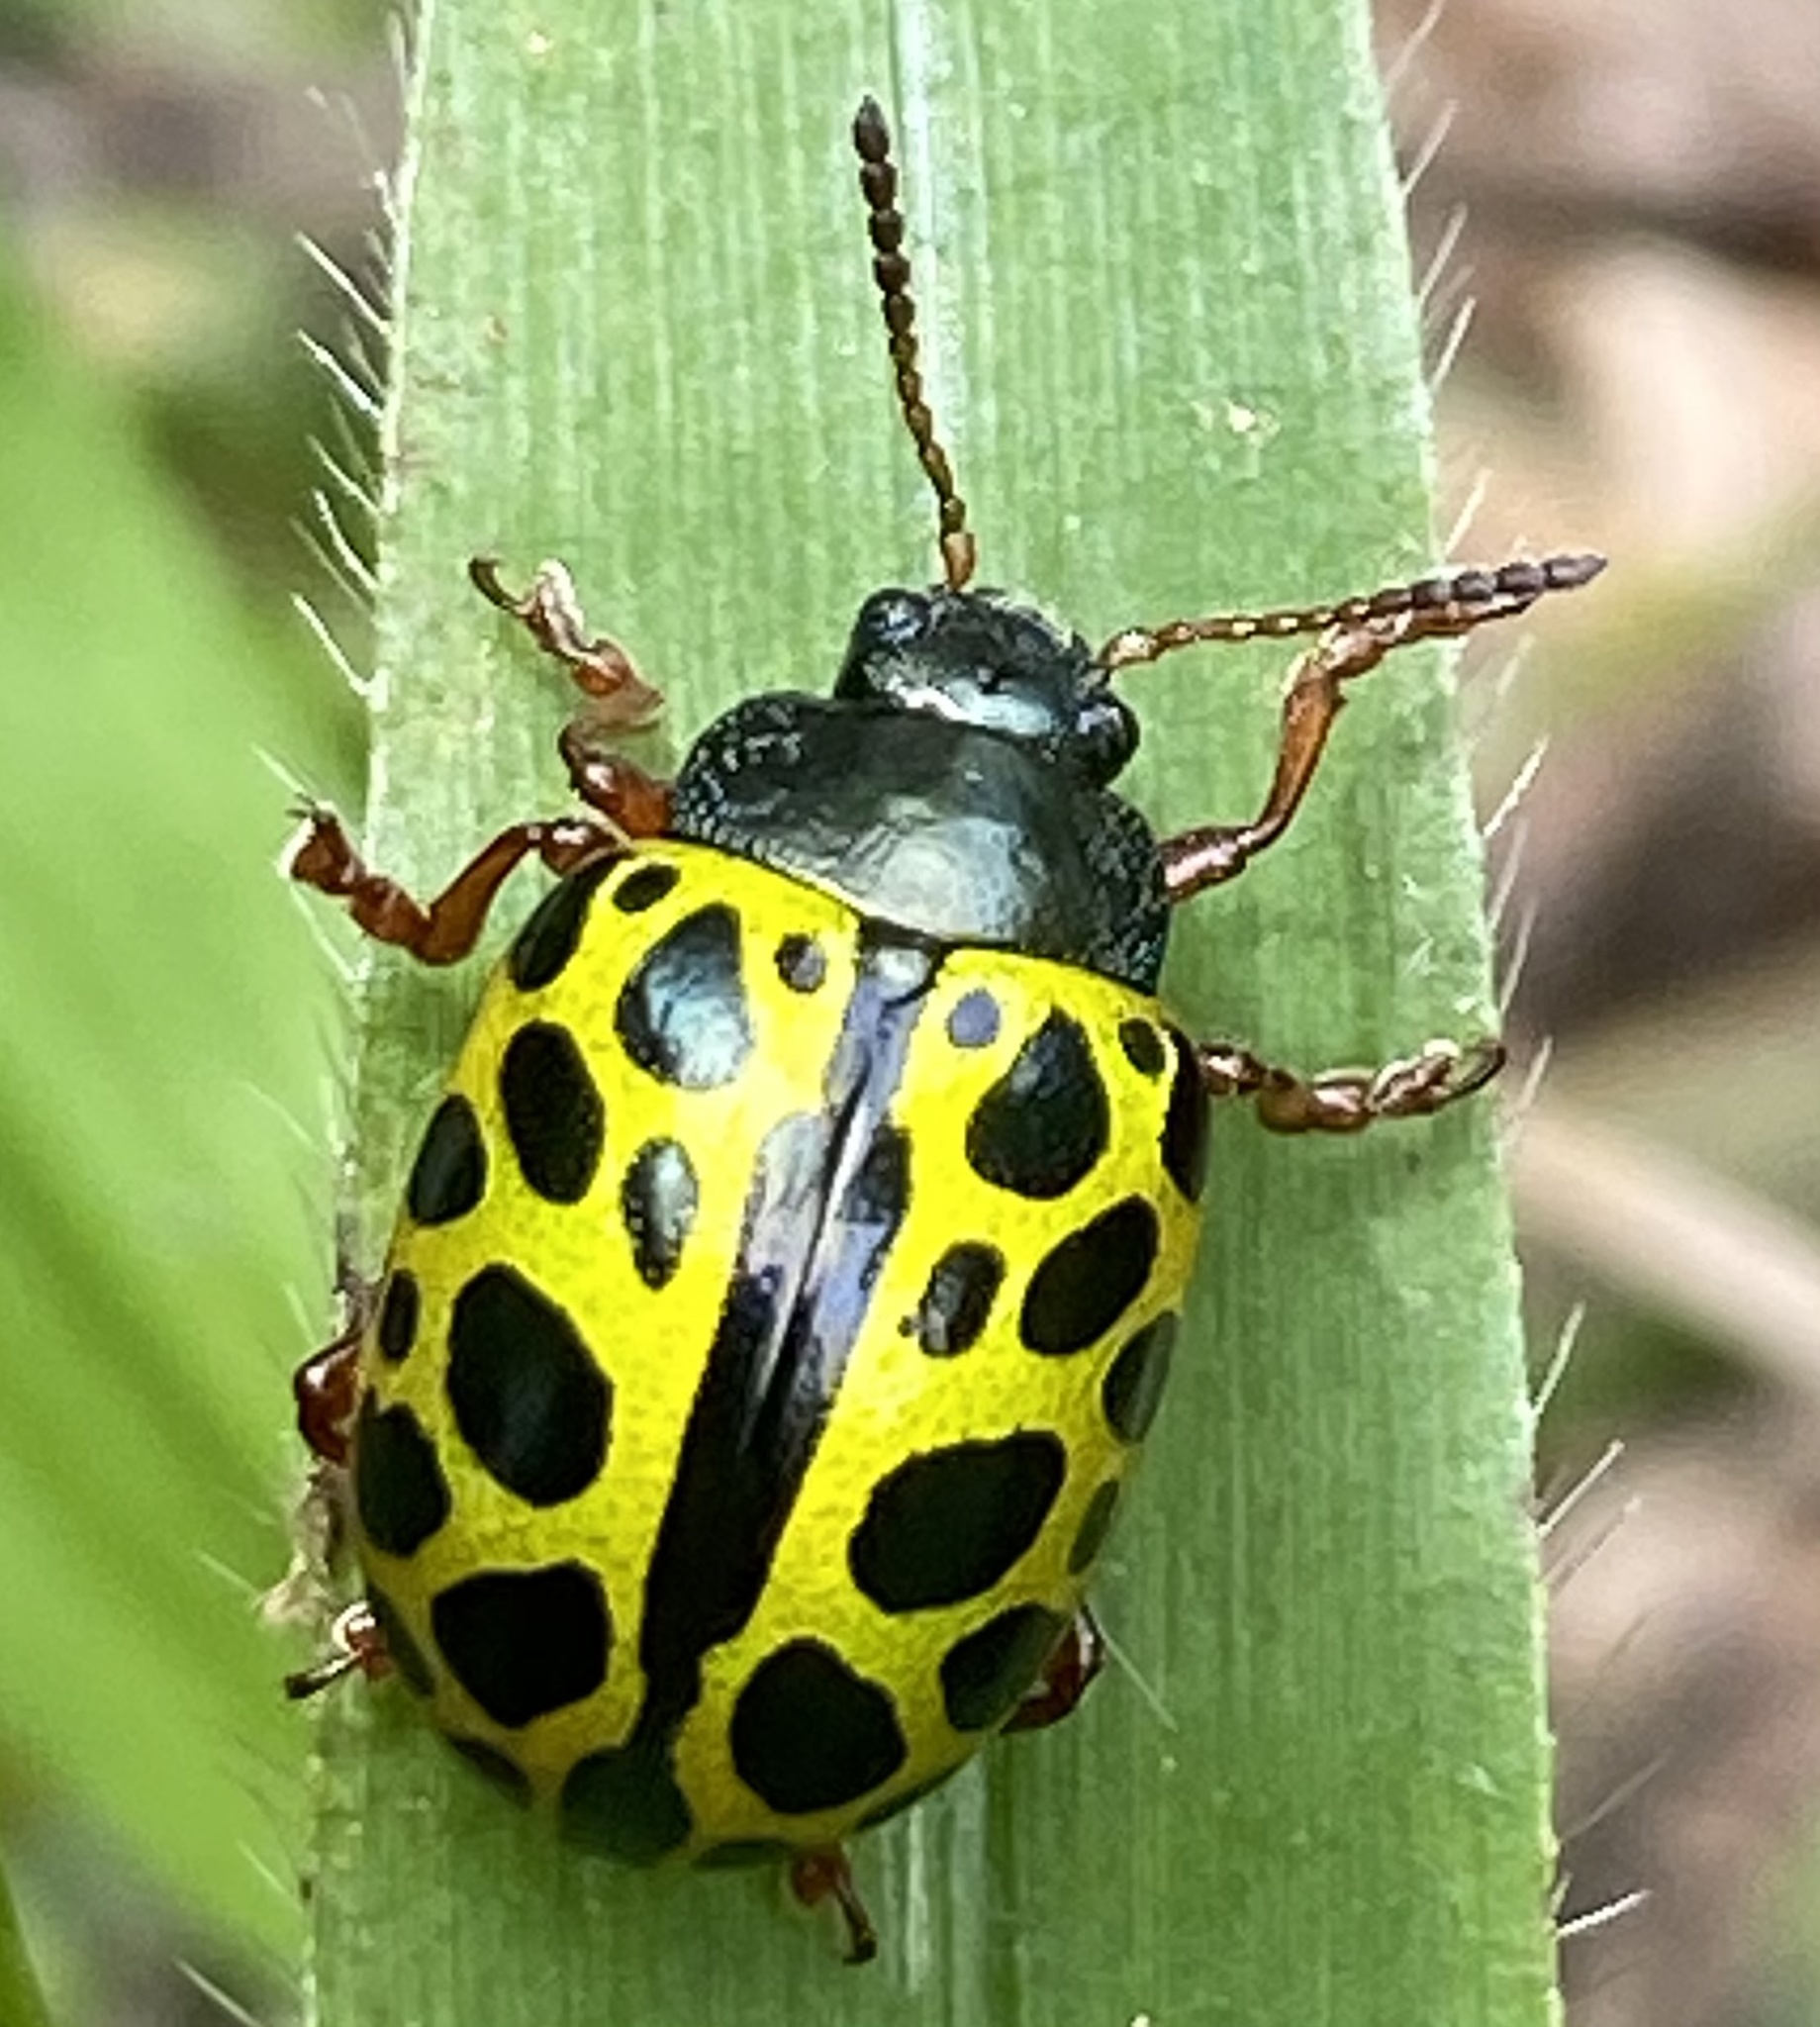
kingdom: Animalia
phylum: Arthropoda
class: Insecta
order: Coleoptera
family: Chrysomelidae
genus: Calligrapha
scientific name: Calligrapha polyspila
